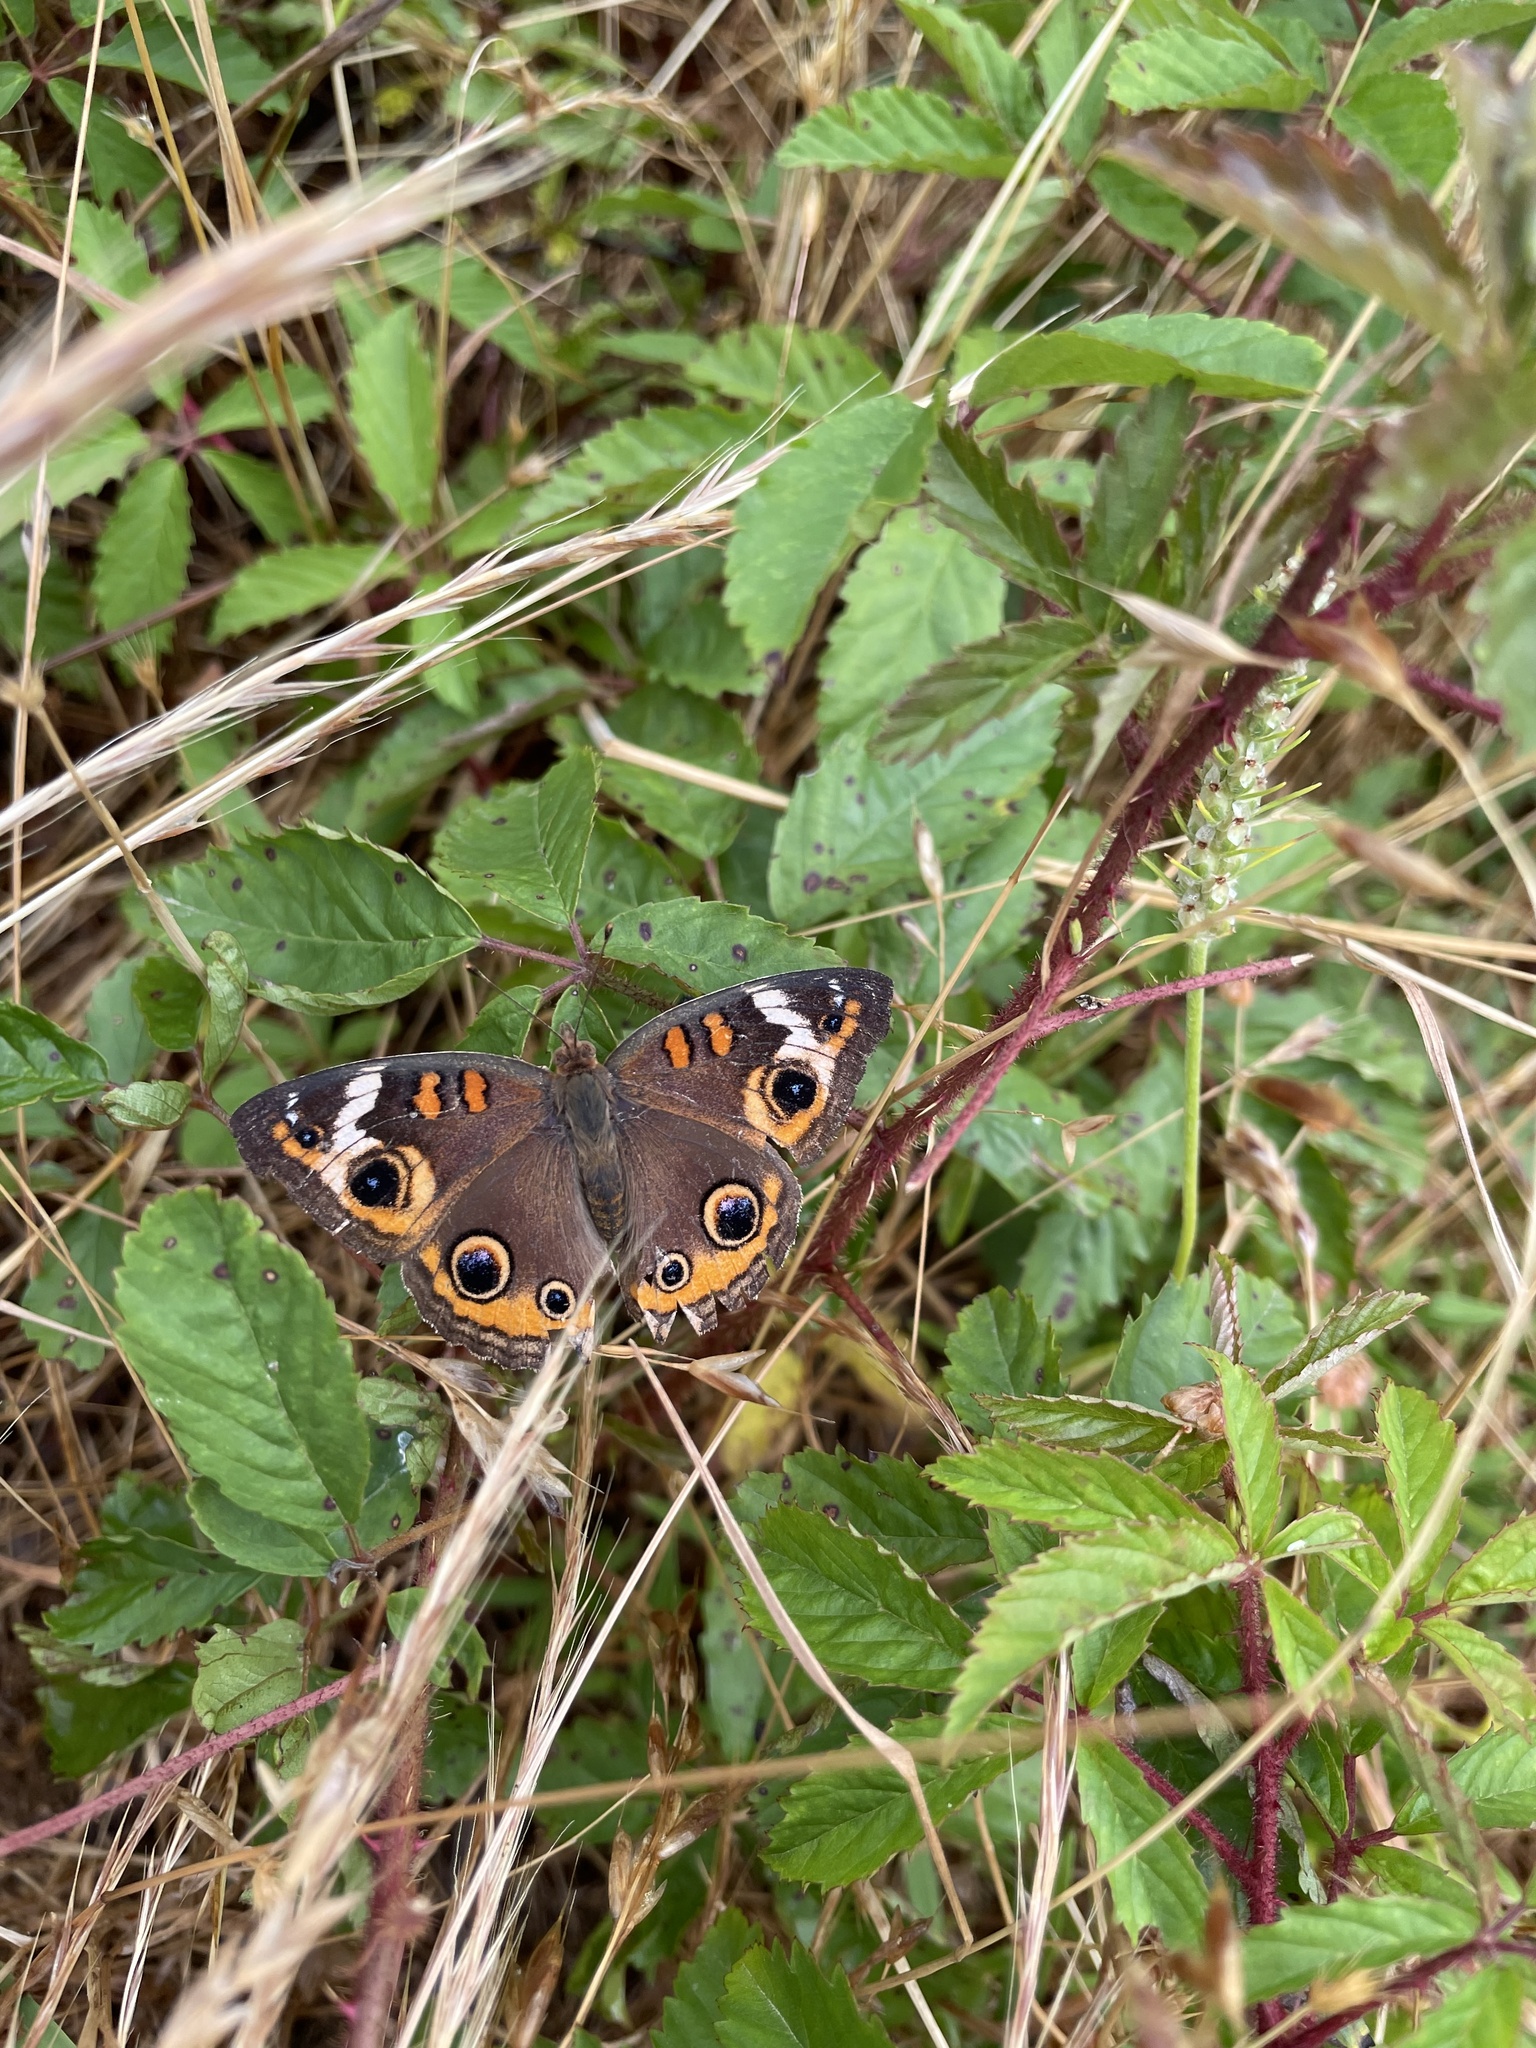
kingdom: Animalia
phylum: Arthropoda
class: Insecta
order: Lepidoptera
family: Nymphalidae
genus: Junonia
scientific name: Junonia coenia
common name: Common buckeye
